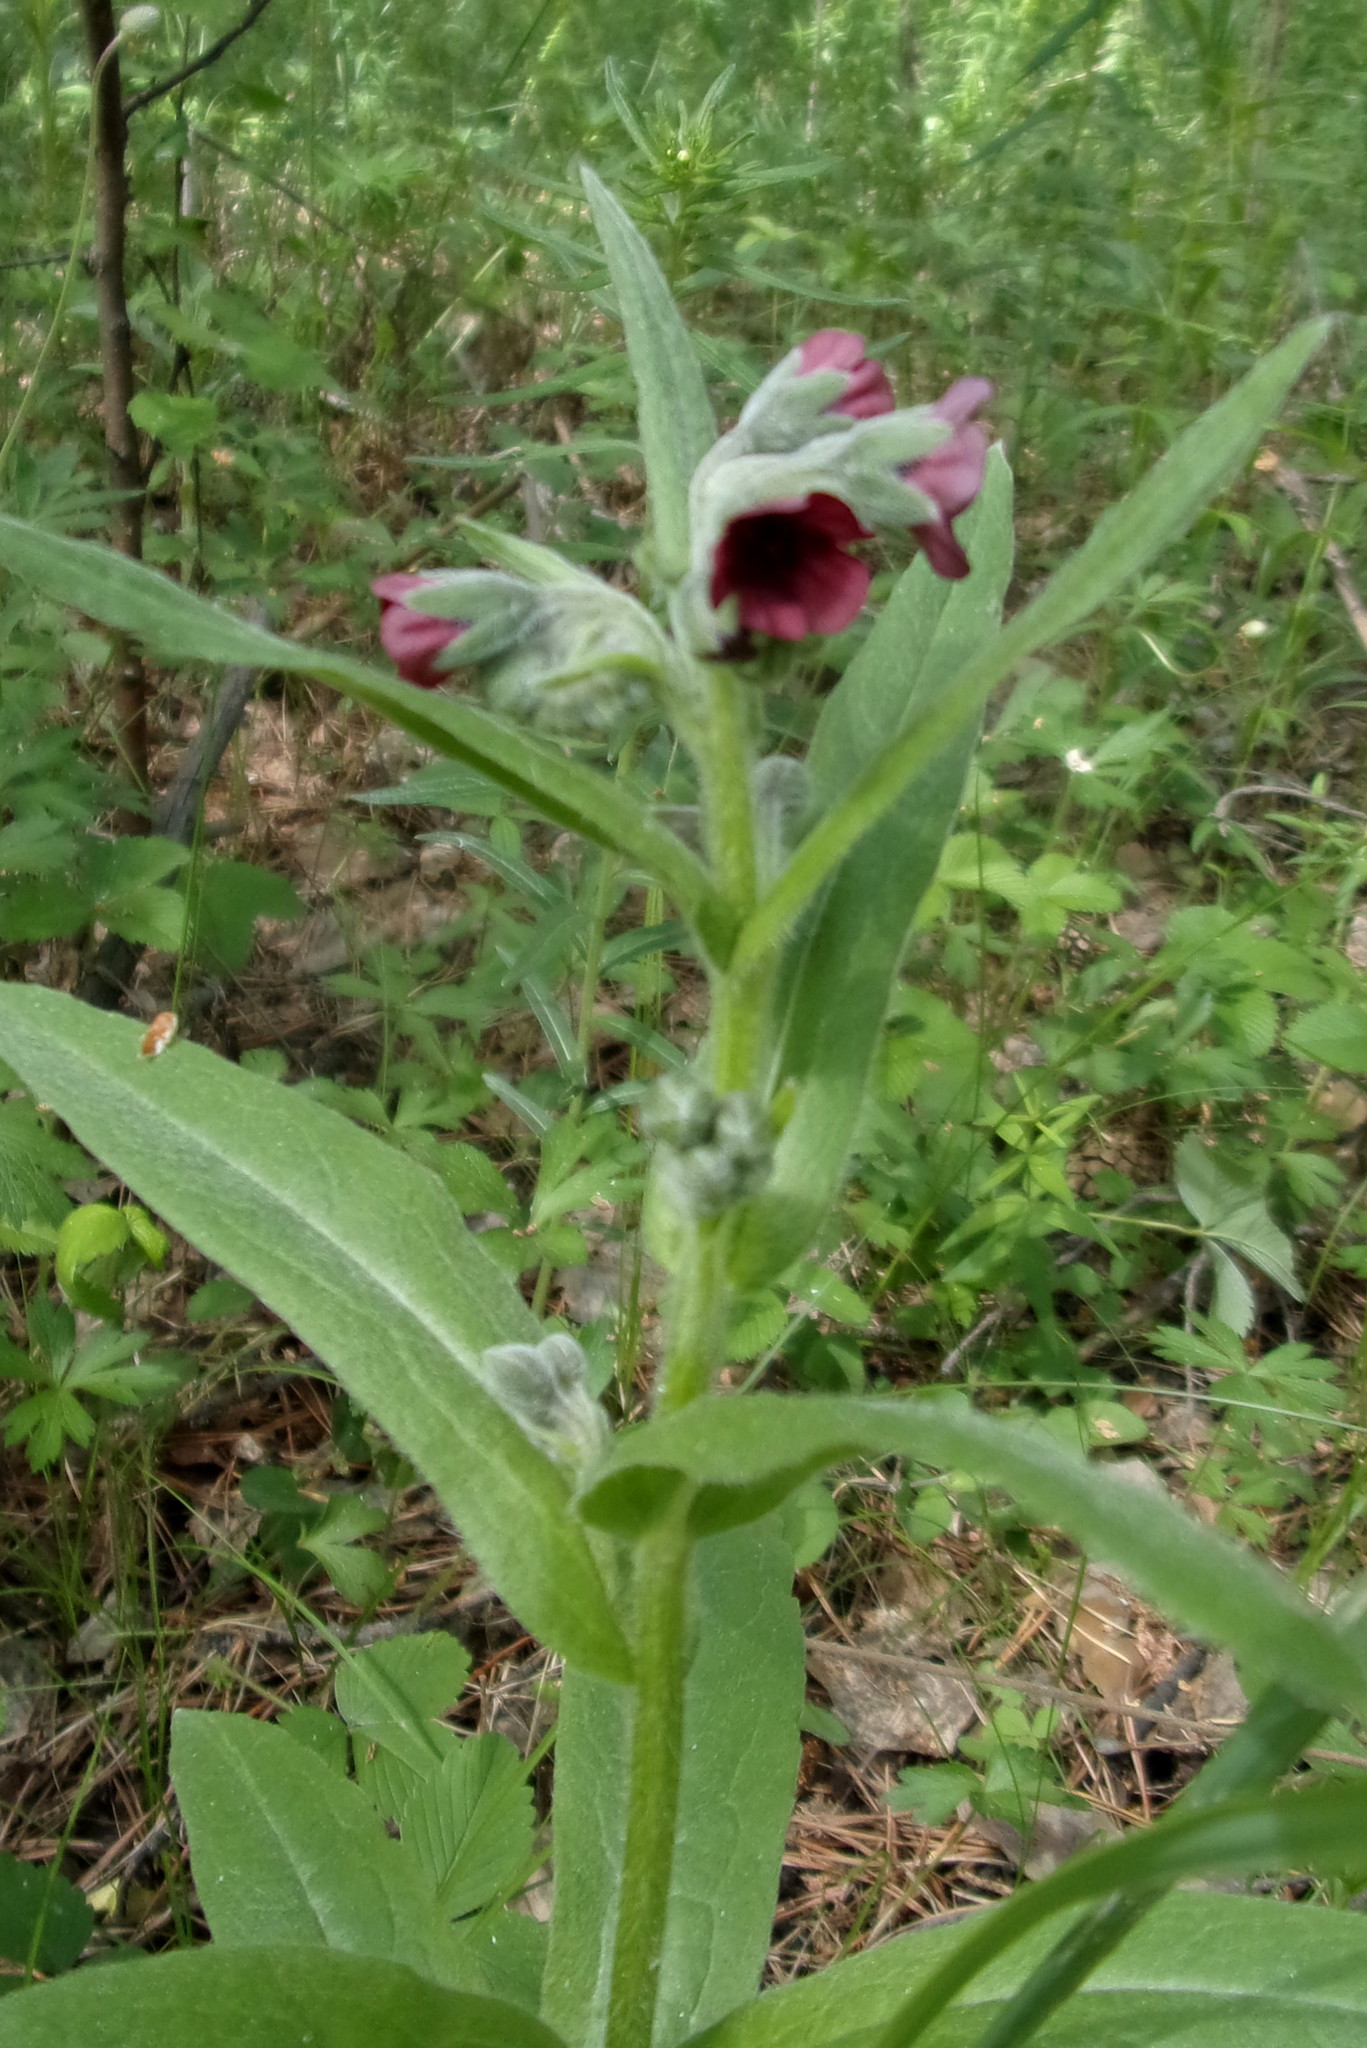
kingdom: Plantae
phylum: Tracheophyta
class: Magnoliopsida
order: Boraginales
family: Boraginaceae
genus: Cynoglossum
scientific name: Cynoglossum officinale
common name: Hound's-tongue
